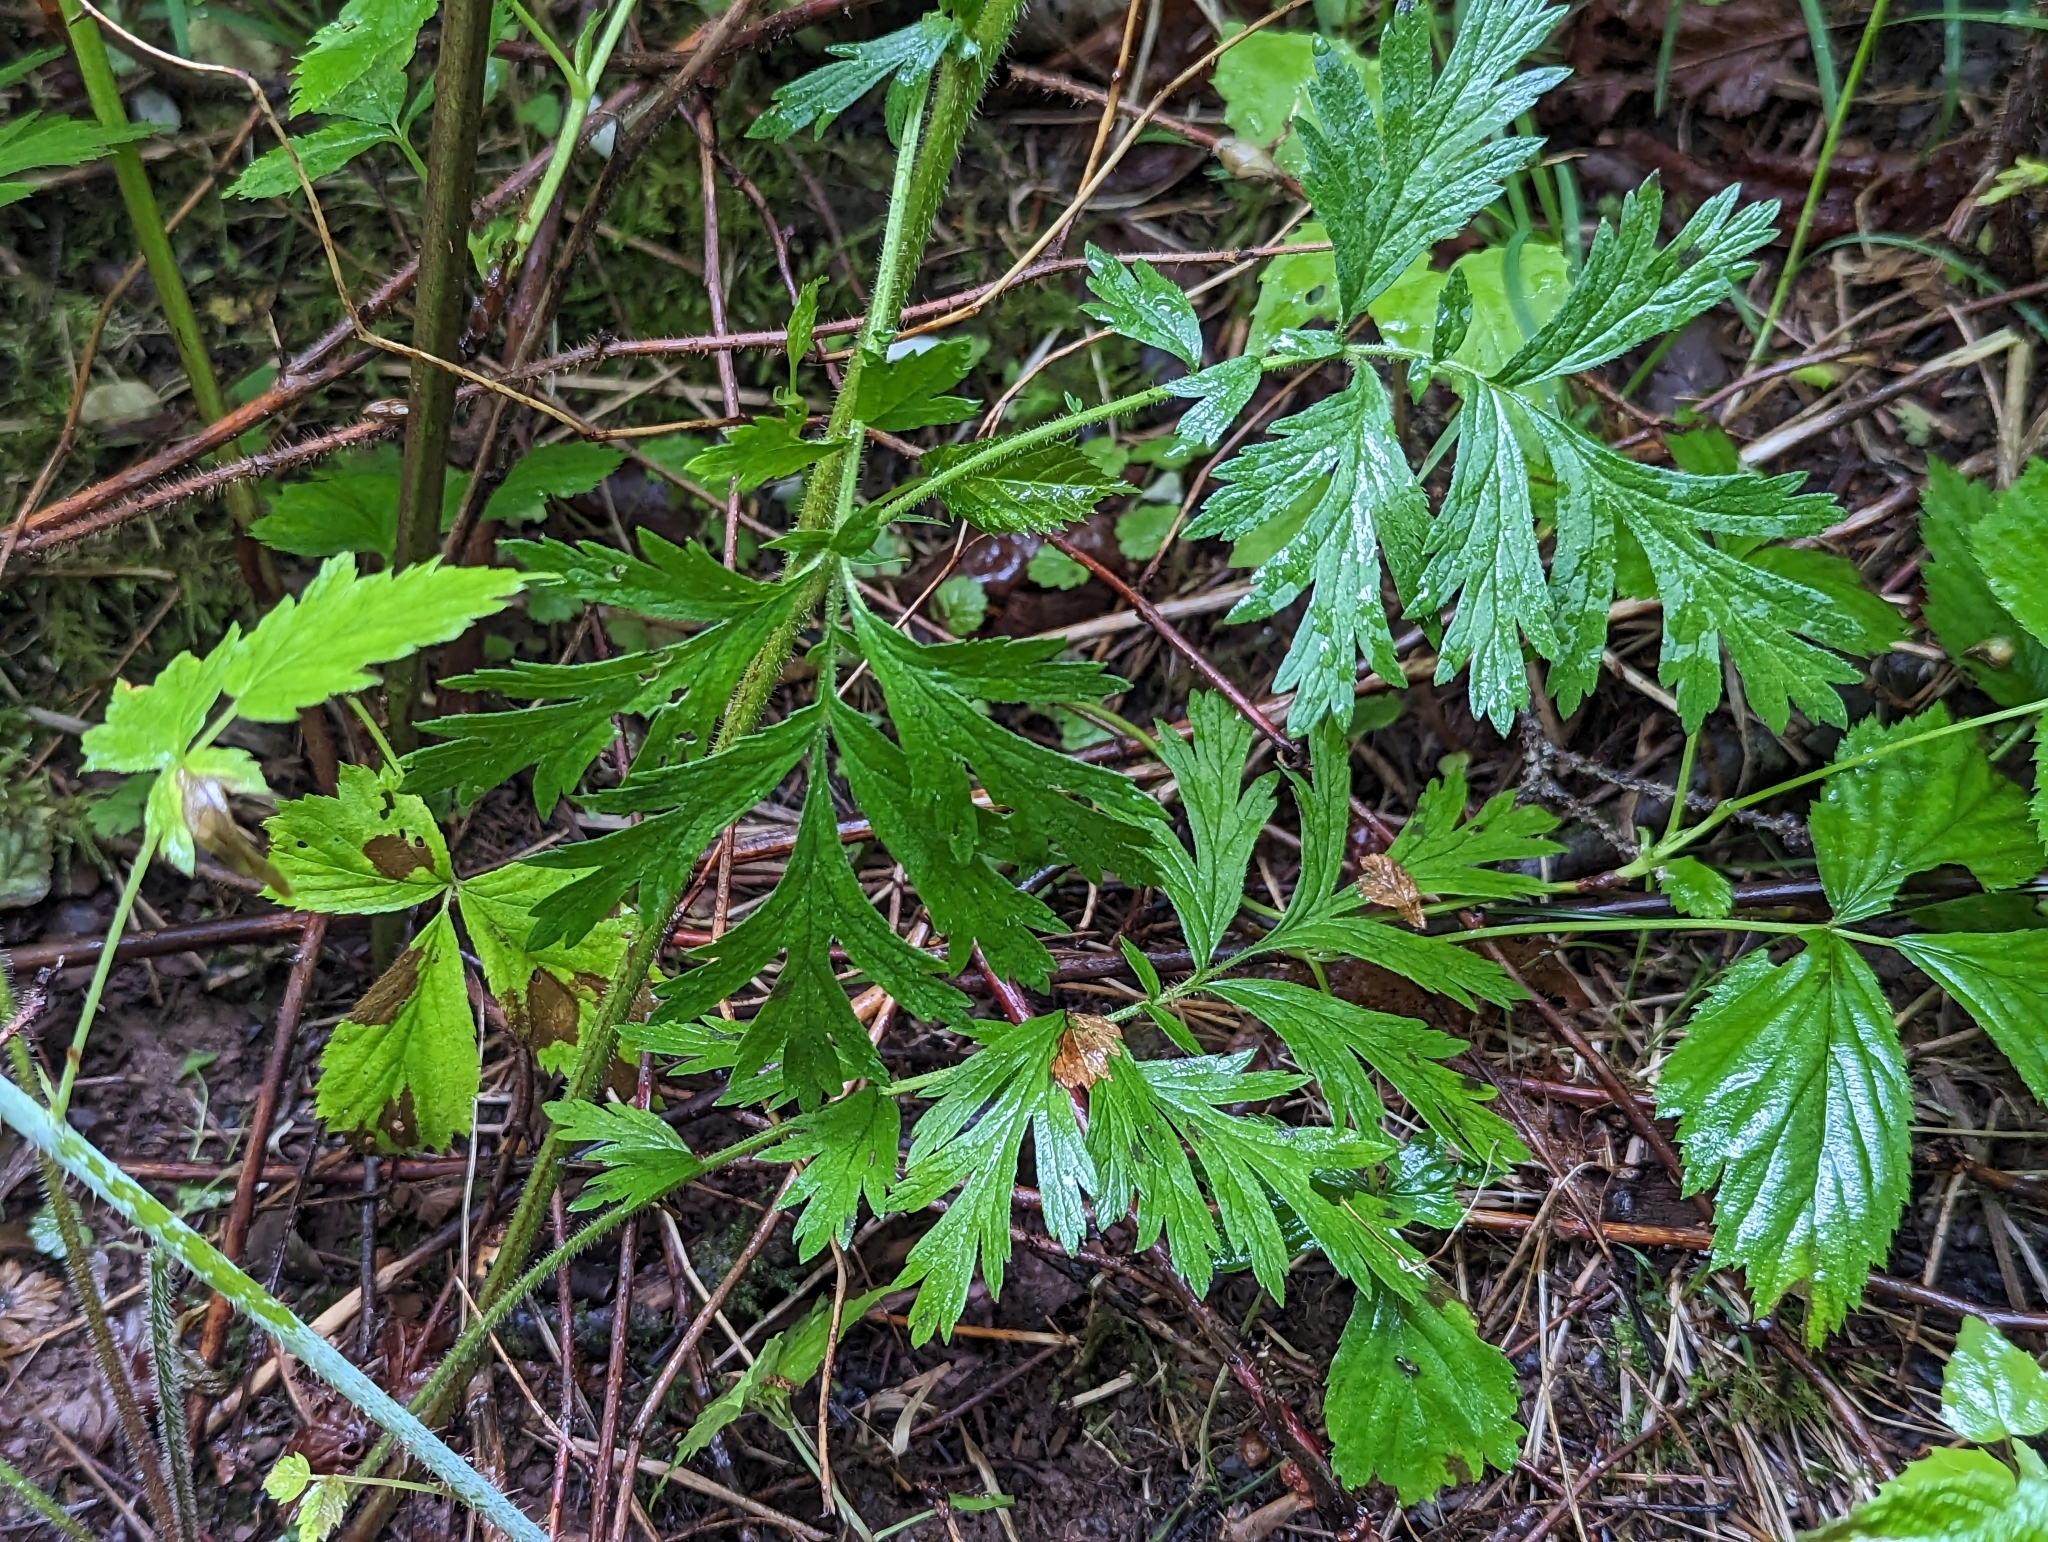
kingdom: Plantae
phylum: Tracheophyta
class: Magnoliopsida
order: Rosales
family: Rosaceae
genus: Geum
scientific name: Geum laciniatum
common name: Rough avens
